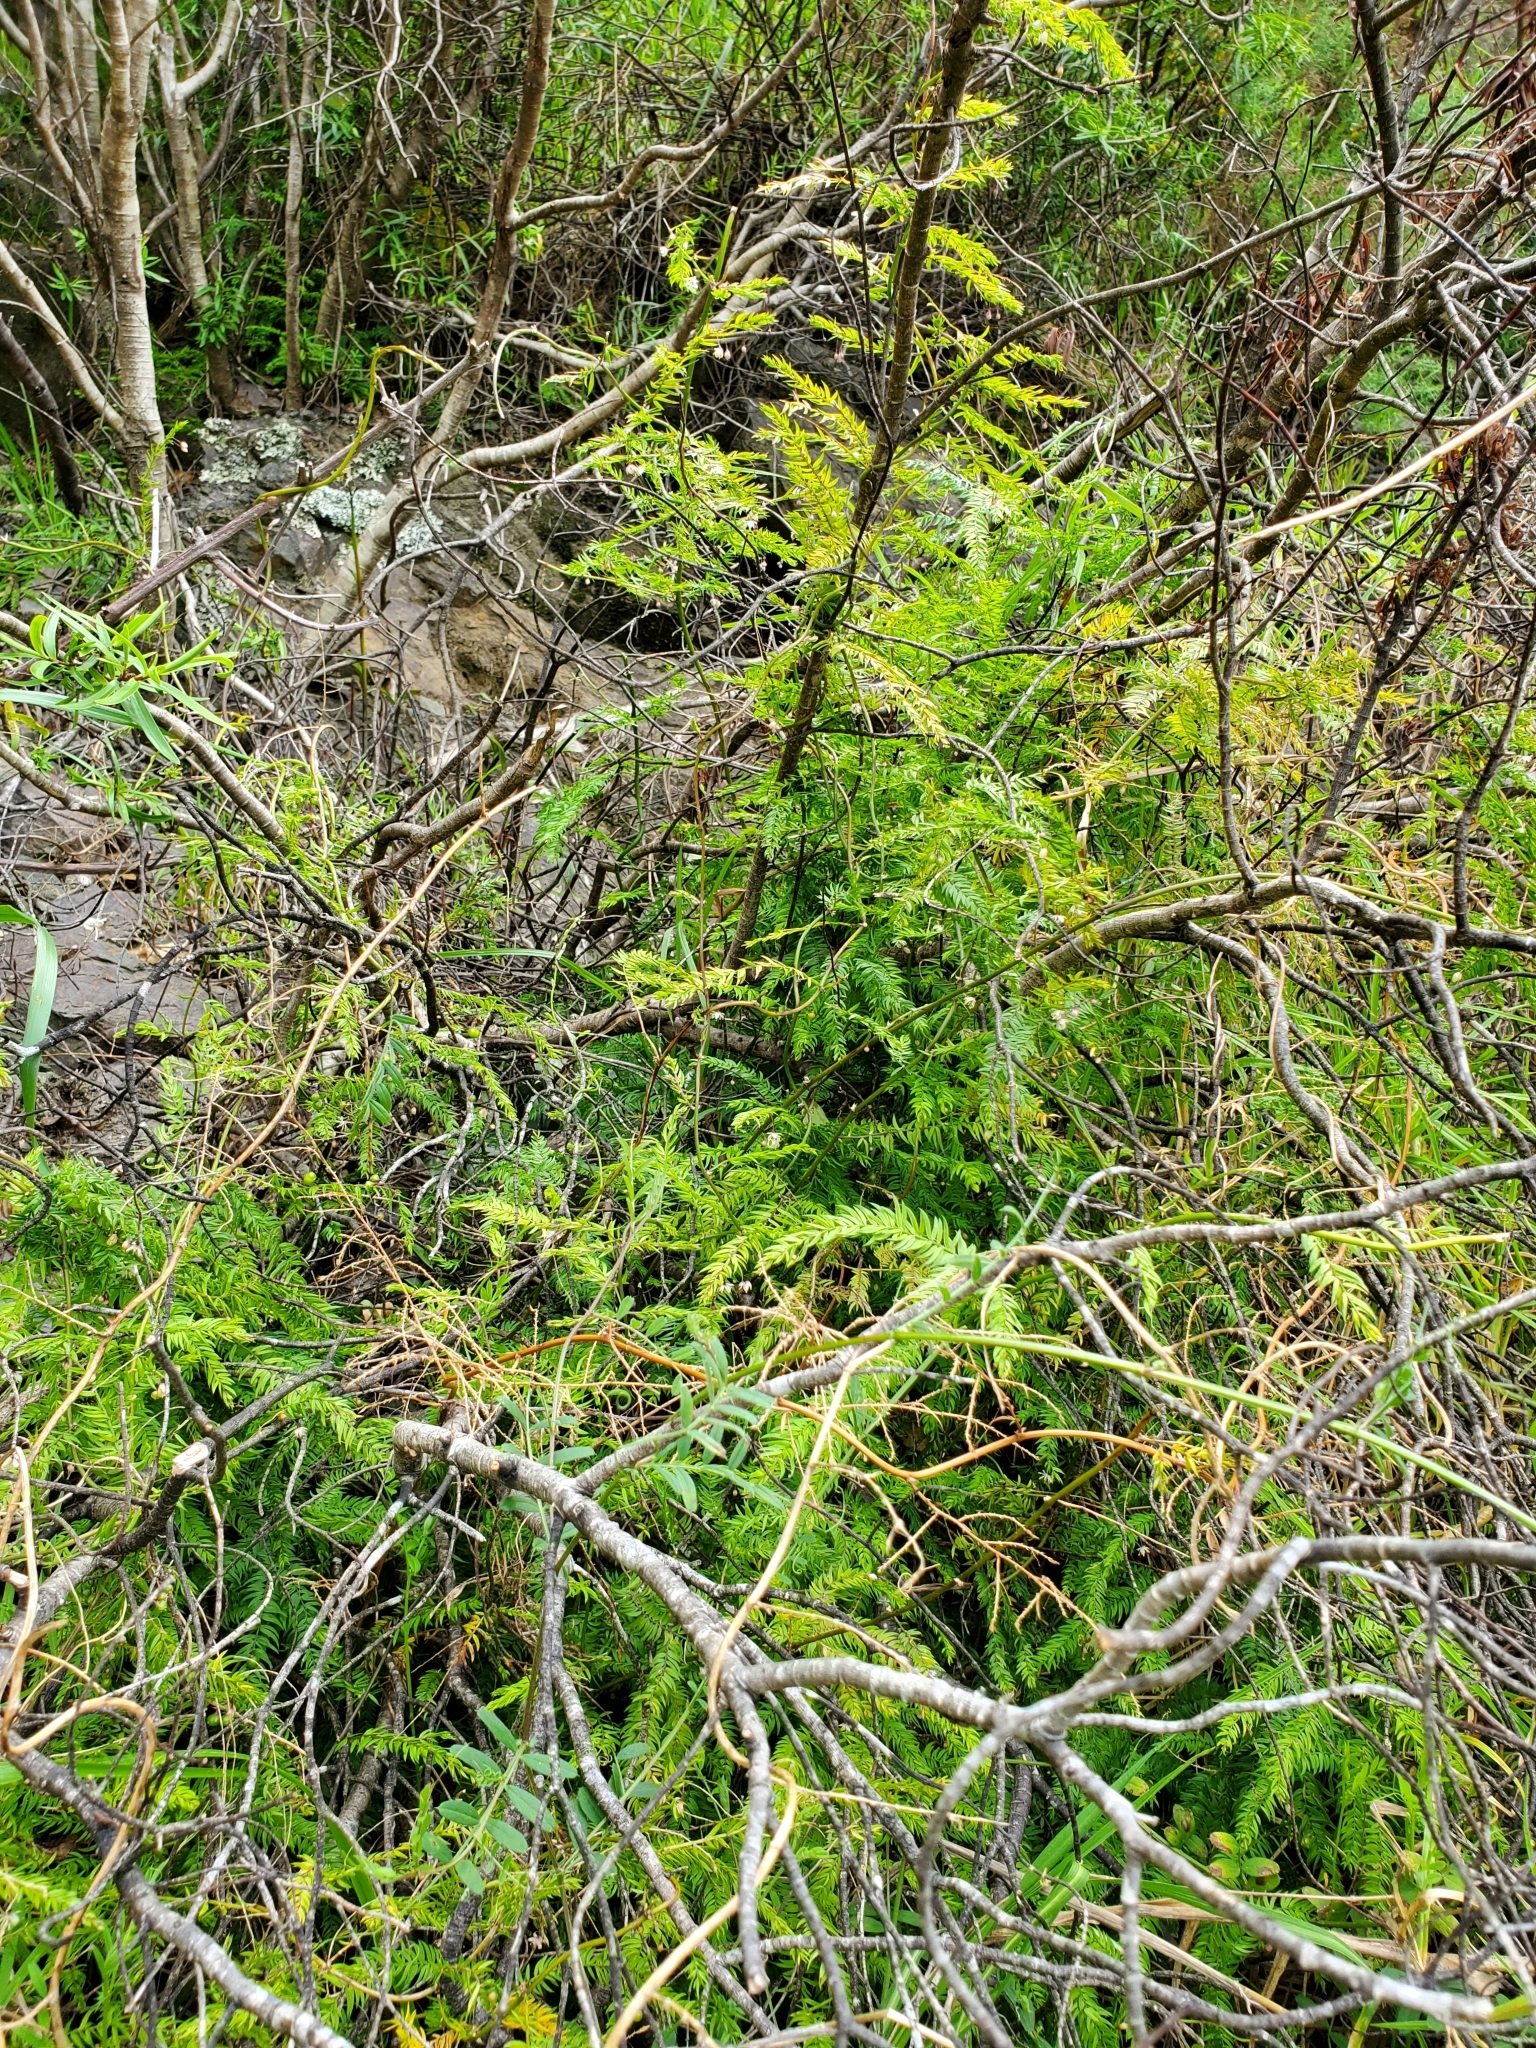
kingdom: Plantae
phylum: Tracheophyta
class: Liliopsida
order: Asparagales
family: Asparagaceae
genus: Asparagus
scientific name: Asparagus scandens
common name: Asparagus-fern
